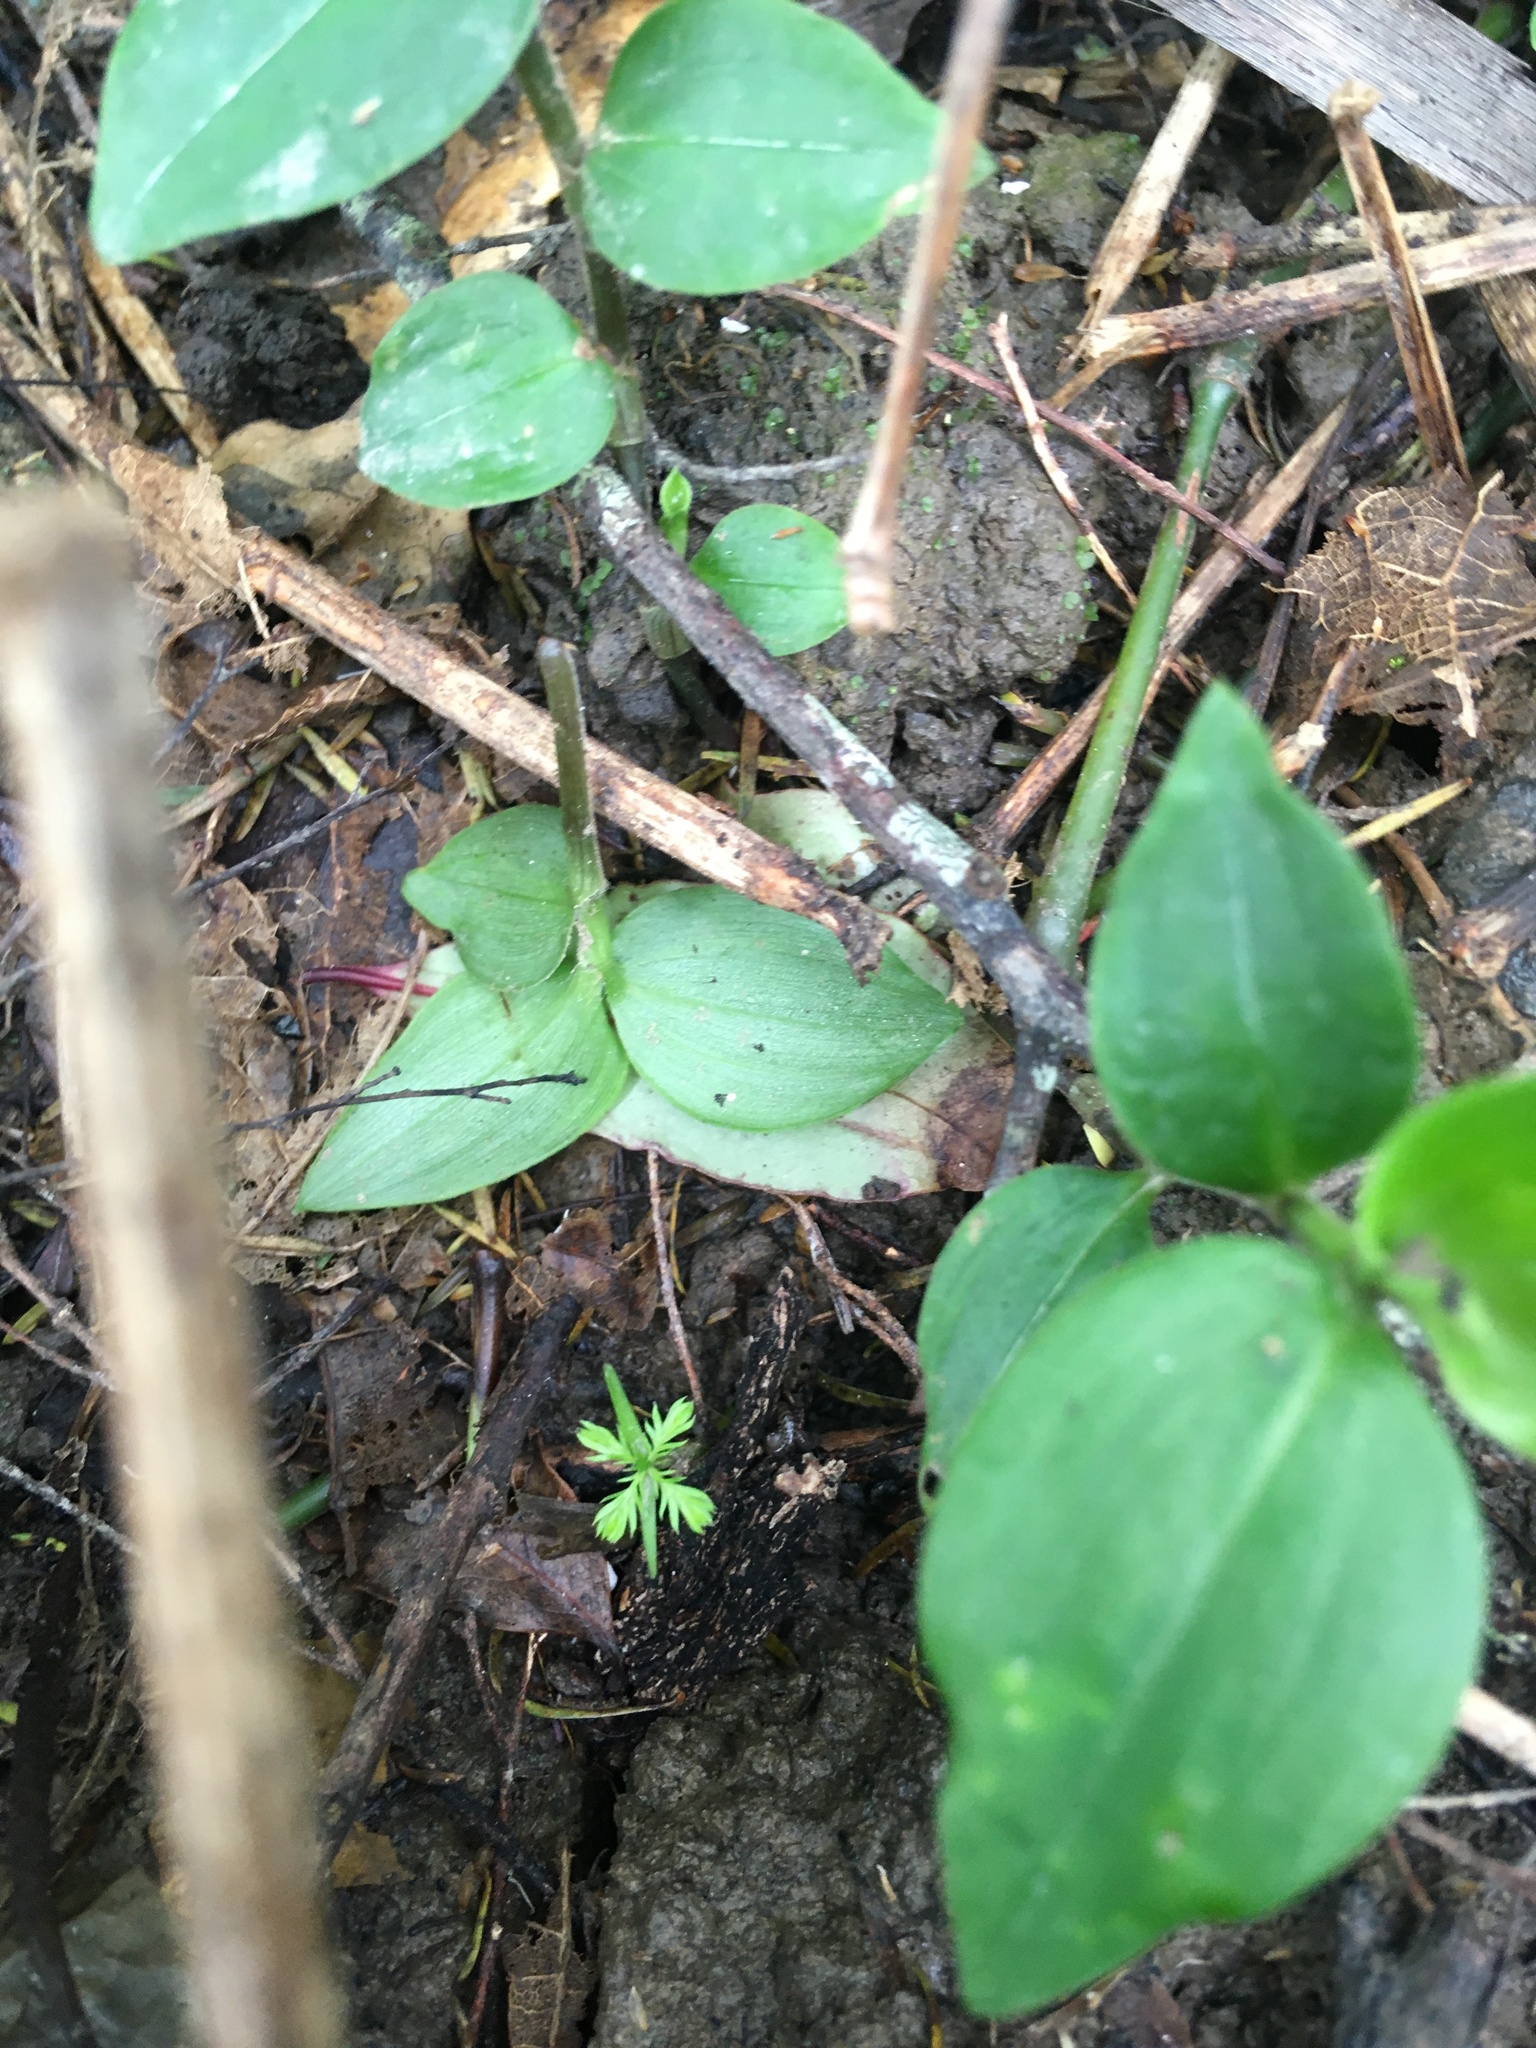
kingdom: Plantae
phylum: Tracheophyta
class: Pinopsida
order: Pinales
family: Podocarpaceae
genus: Dacrycarpus
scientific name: Dacrycarpus dacrydioides
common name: White pine
